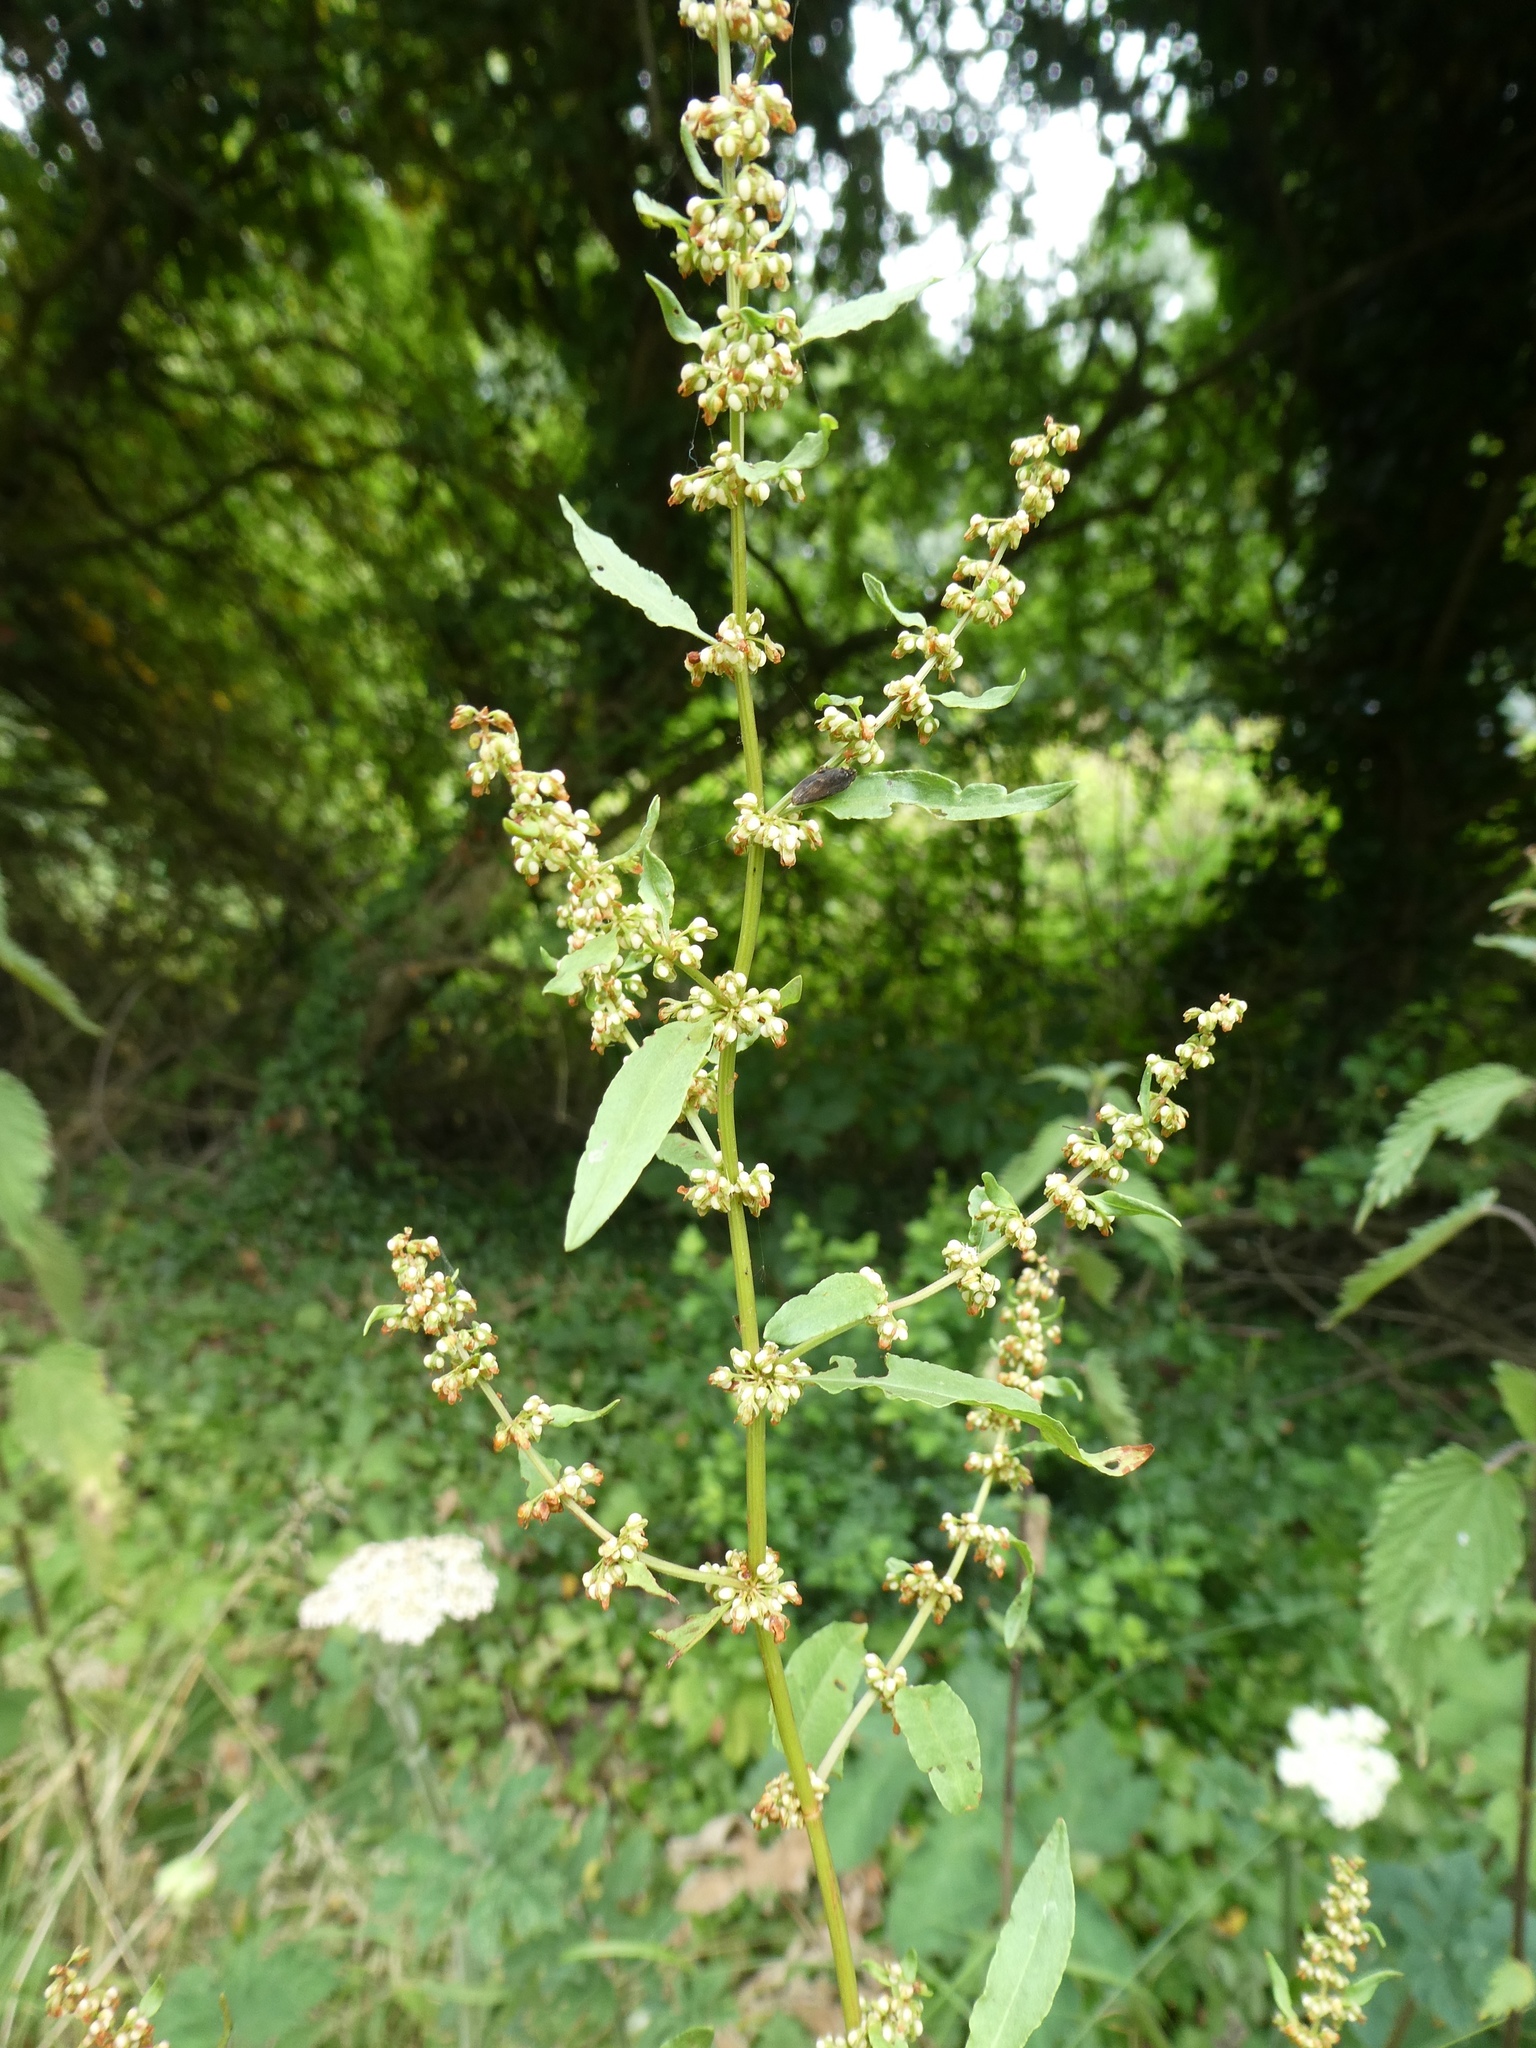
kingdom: Plantae
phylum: Tracheophyta
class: Magnoliopsida
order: Caryophyllales
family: Polygonaceae
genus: Rumex
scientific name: Rumex conglomeratus
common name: Clustered dock
